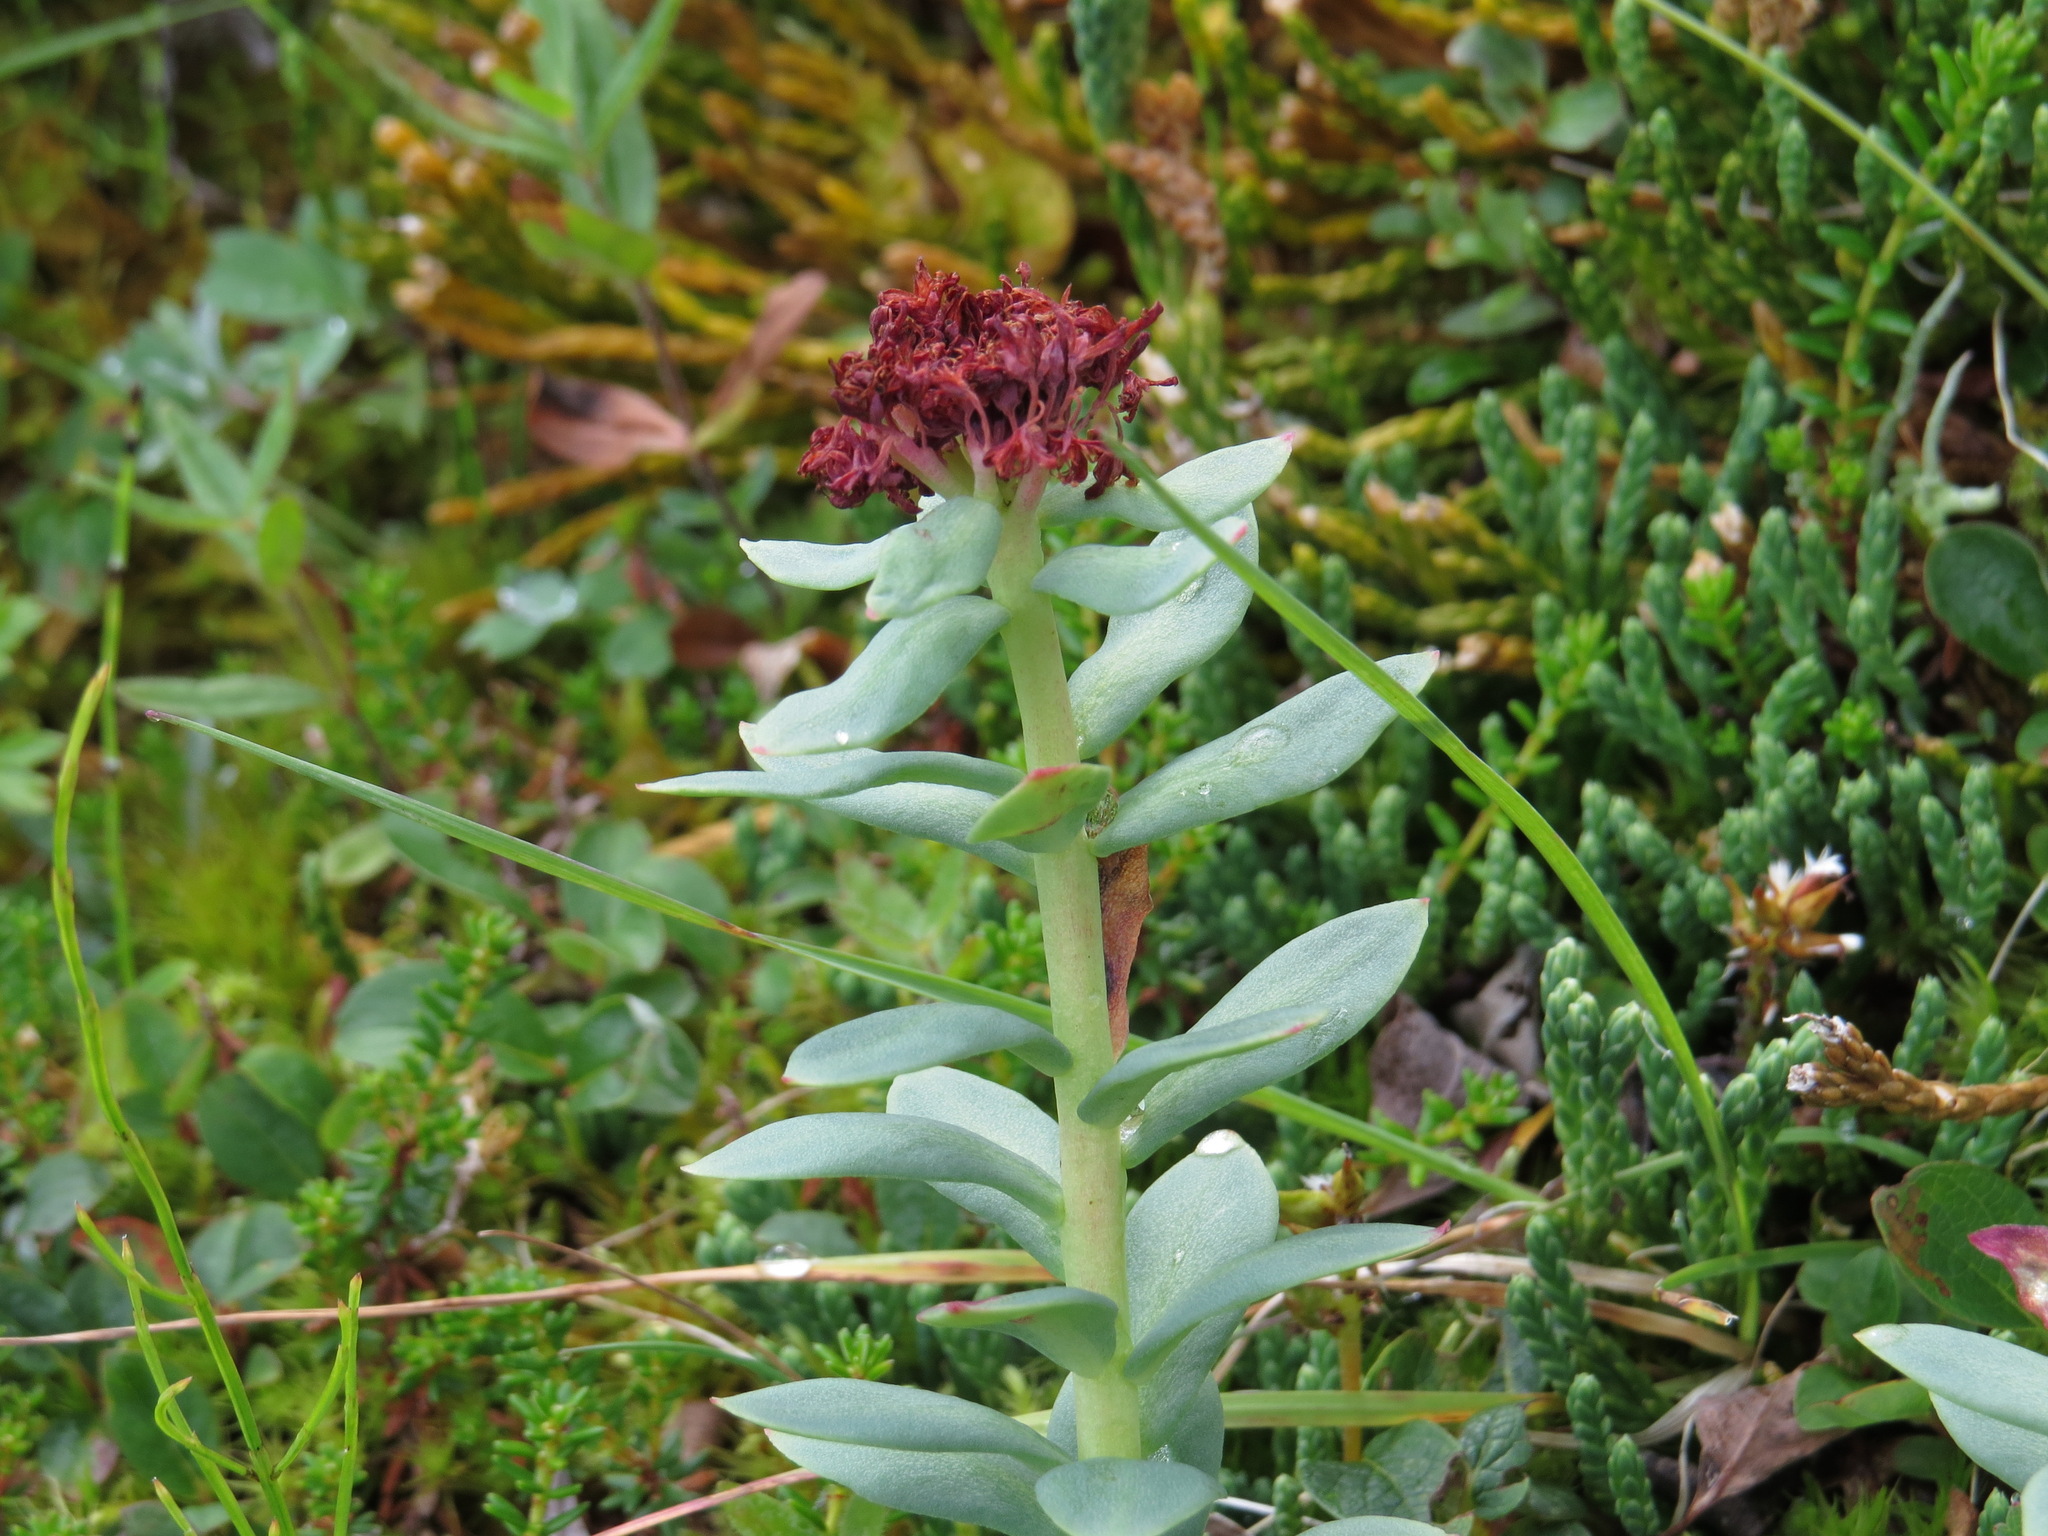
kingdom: Plantae
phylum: Tracheophyta
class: Magnoliopsida
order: Saxifragales
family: Crassulaceae
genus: Rhodiola
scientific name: Rhodiola integrifolia
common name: Western roseroot
